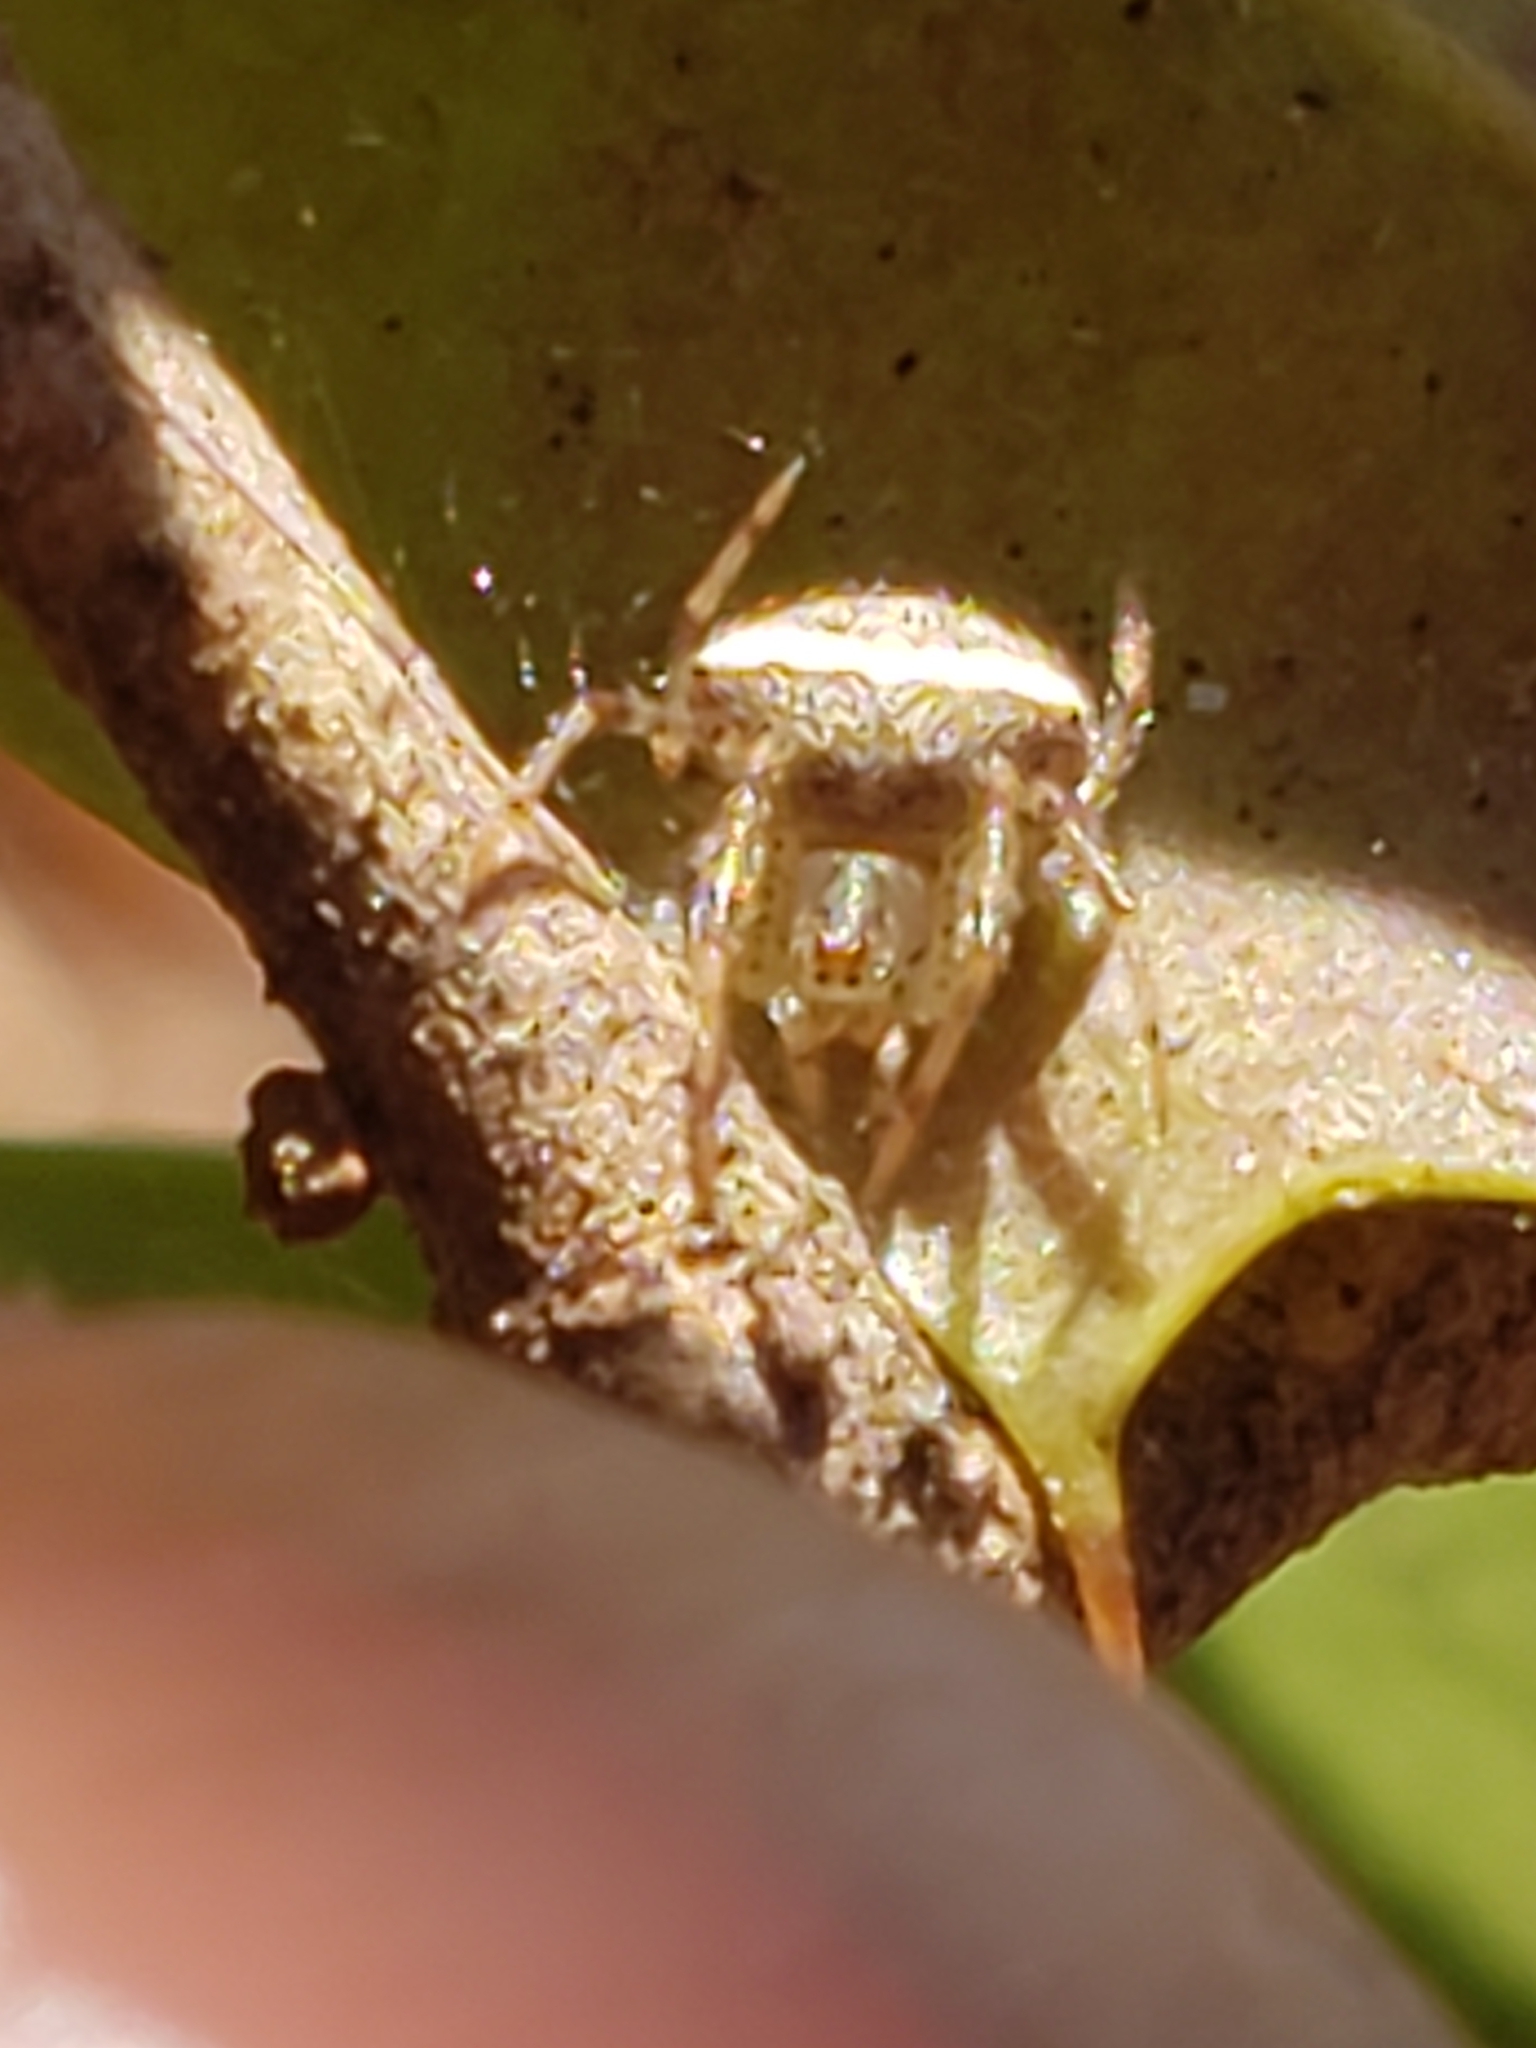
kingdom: Animalia
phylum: Arthropoda
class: Arachnida
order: Araneae
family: Araneidae
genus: Araneus
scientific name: Araneus miniatus
